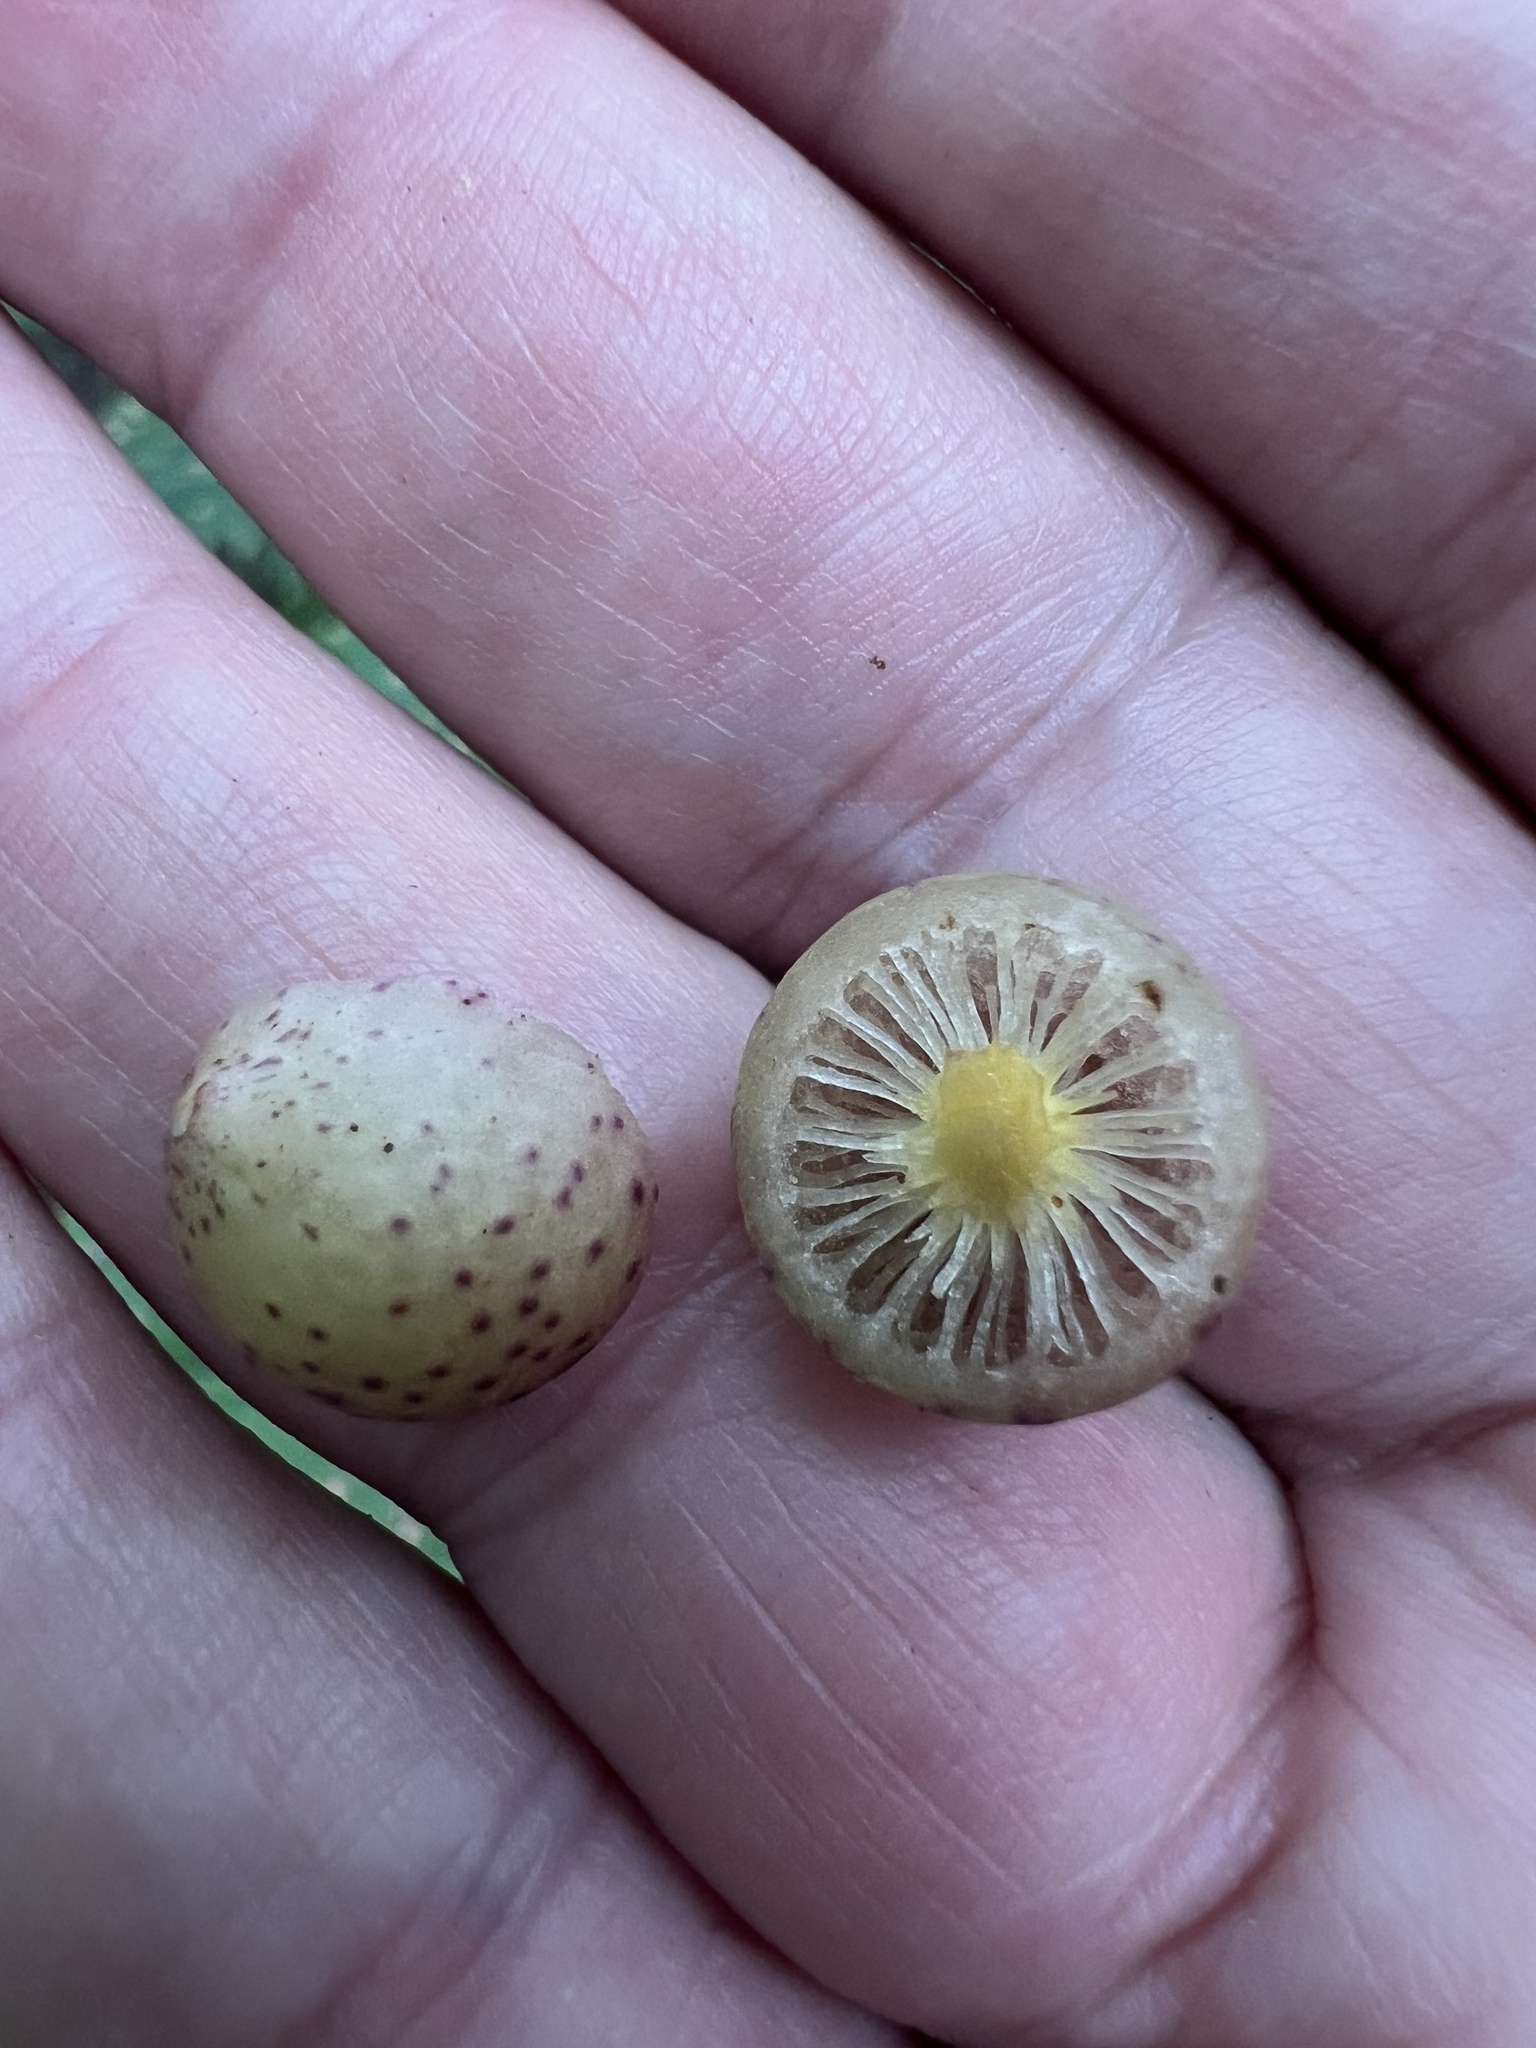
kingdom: Animalia
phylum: Arthropoda
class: Insecta
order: Hymenoptera
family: Cynipidae
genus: Amphibolips
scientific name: Amphibolips
